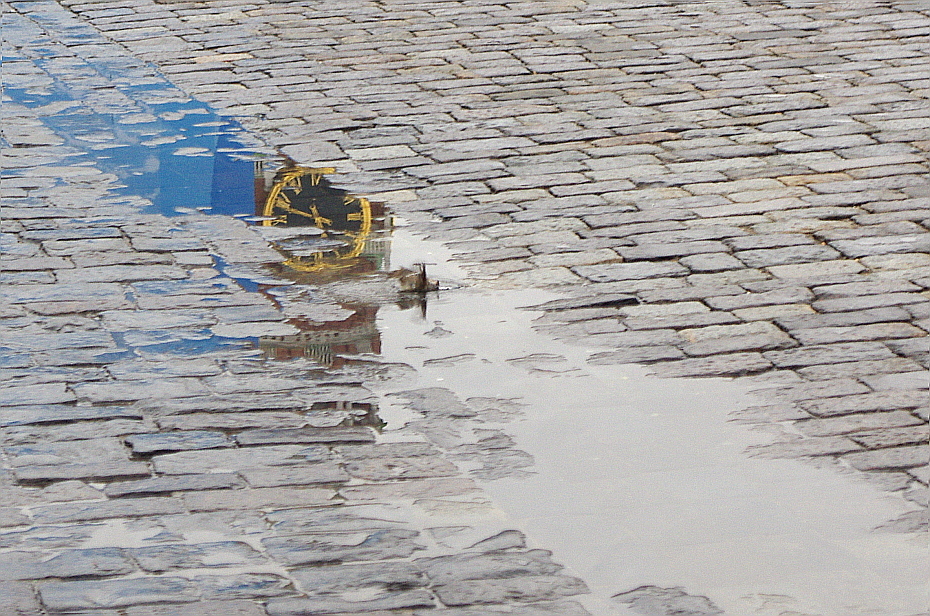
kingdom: Animalia
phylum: Chordata
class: Aves
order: Passeriformes
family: Passeridae
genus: Passer
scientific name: Passer domesticus
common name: House sparrow
